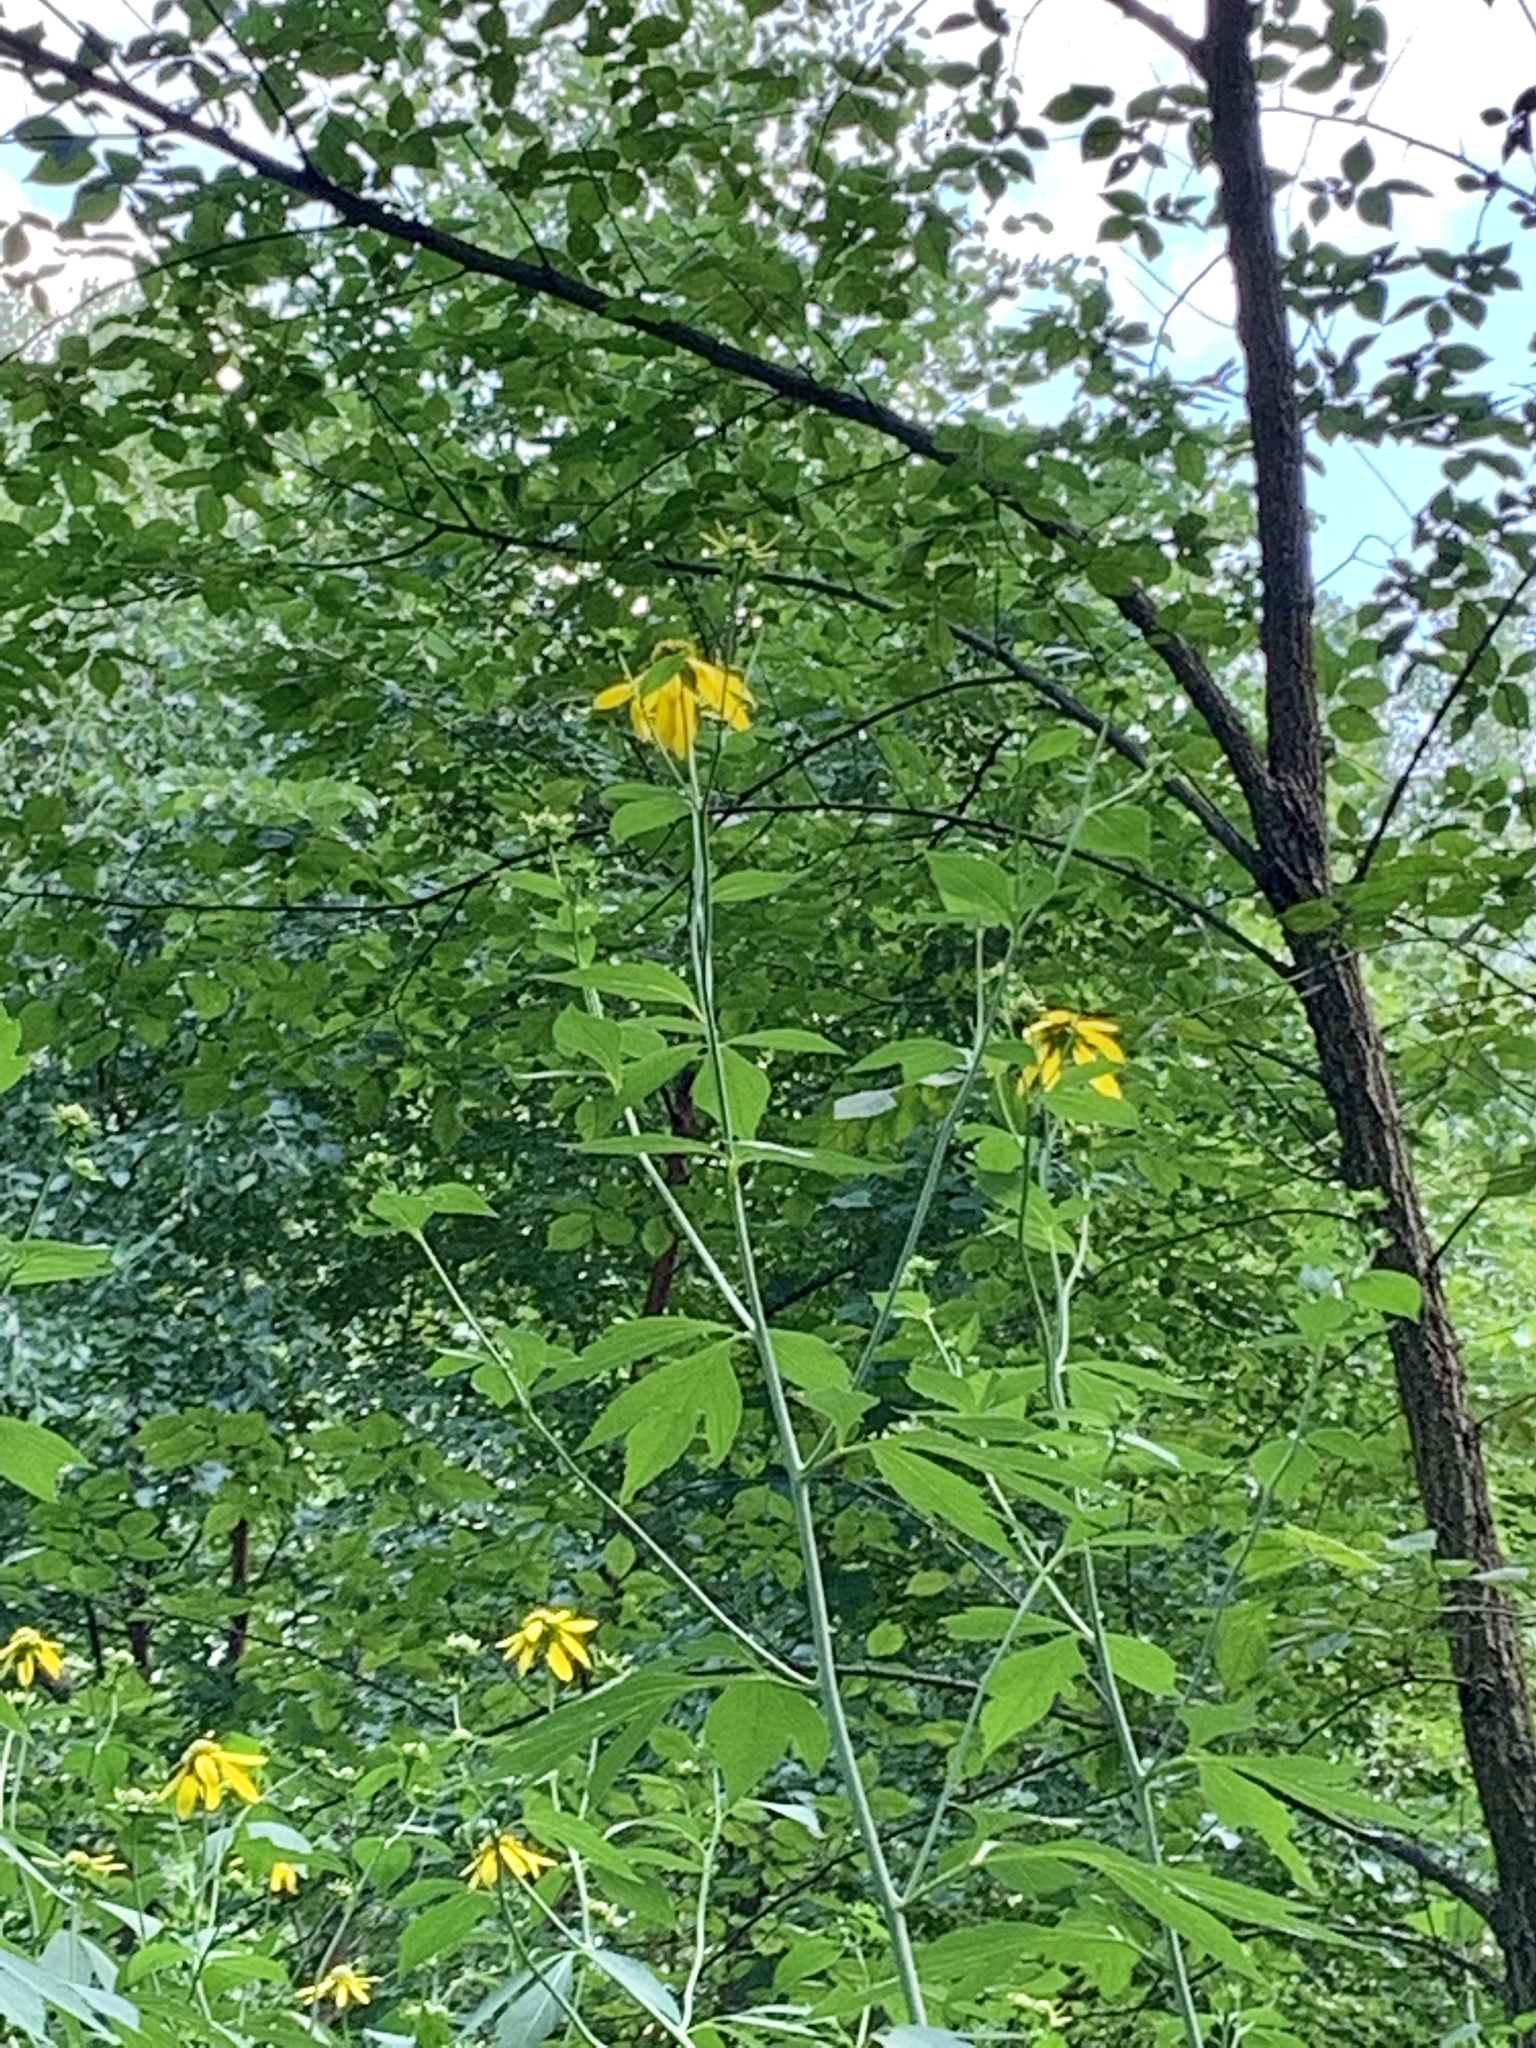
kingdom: Plantae
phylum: Tracheophyta
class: Magnoliopsida
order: Asterales
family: Asteraceae
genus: Rudbeckia
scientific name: Rudbeckia laciniata
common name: Coneflower
